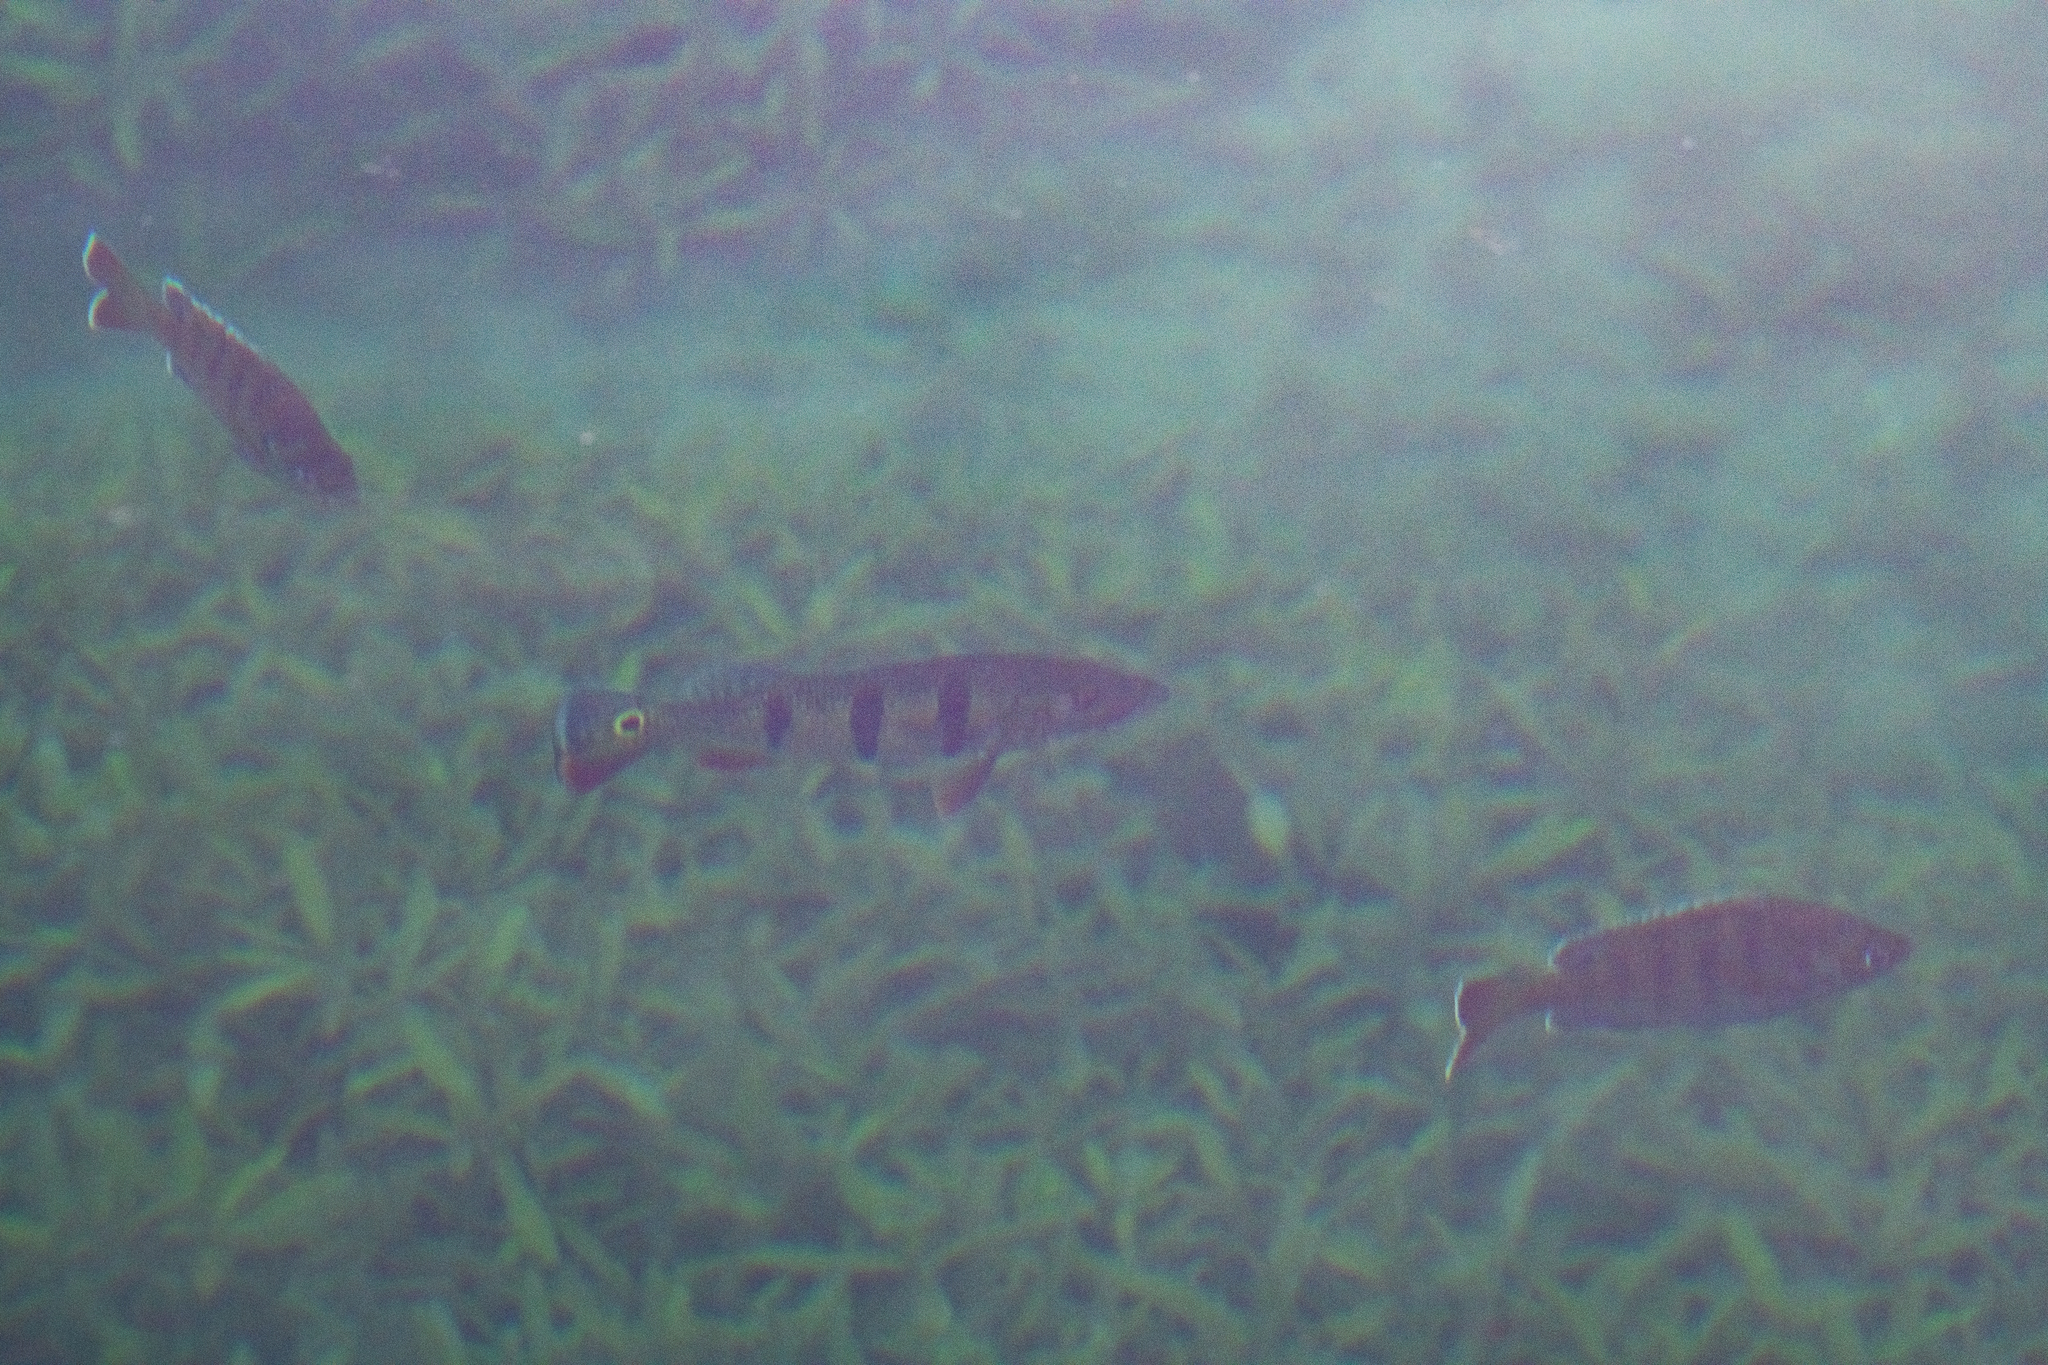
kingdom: Animalia
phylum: Chordata
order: Perciformes
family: Cichlidae
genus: Cichla
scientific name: Cichla ocellaris
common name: Peacock cichlid
